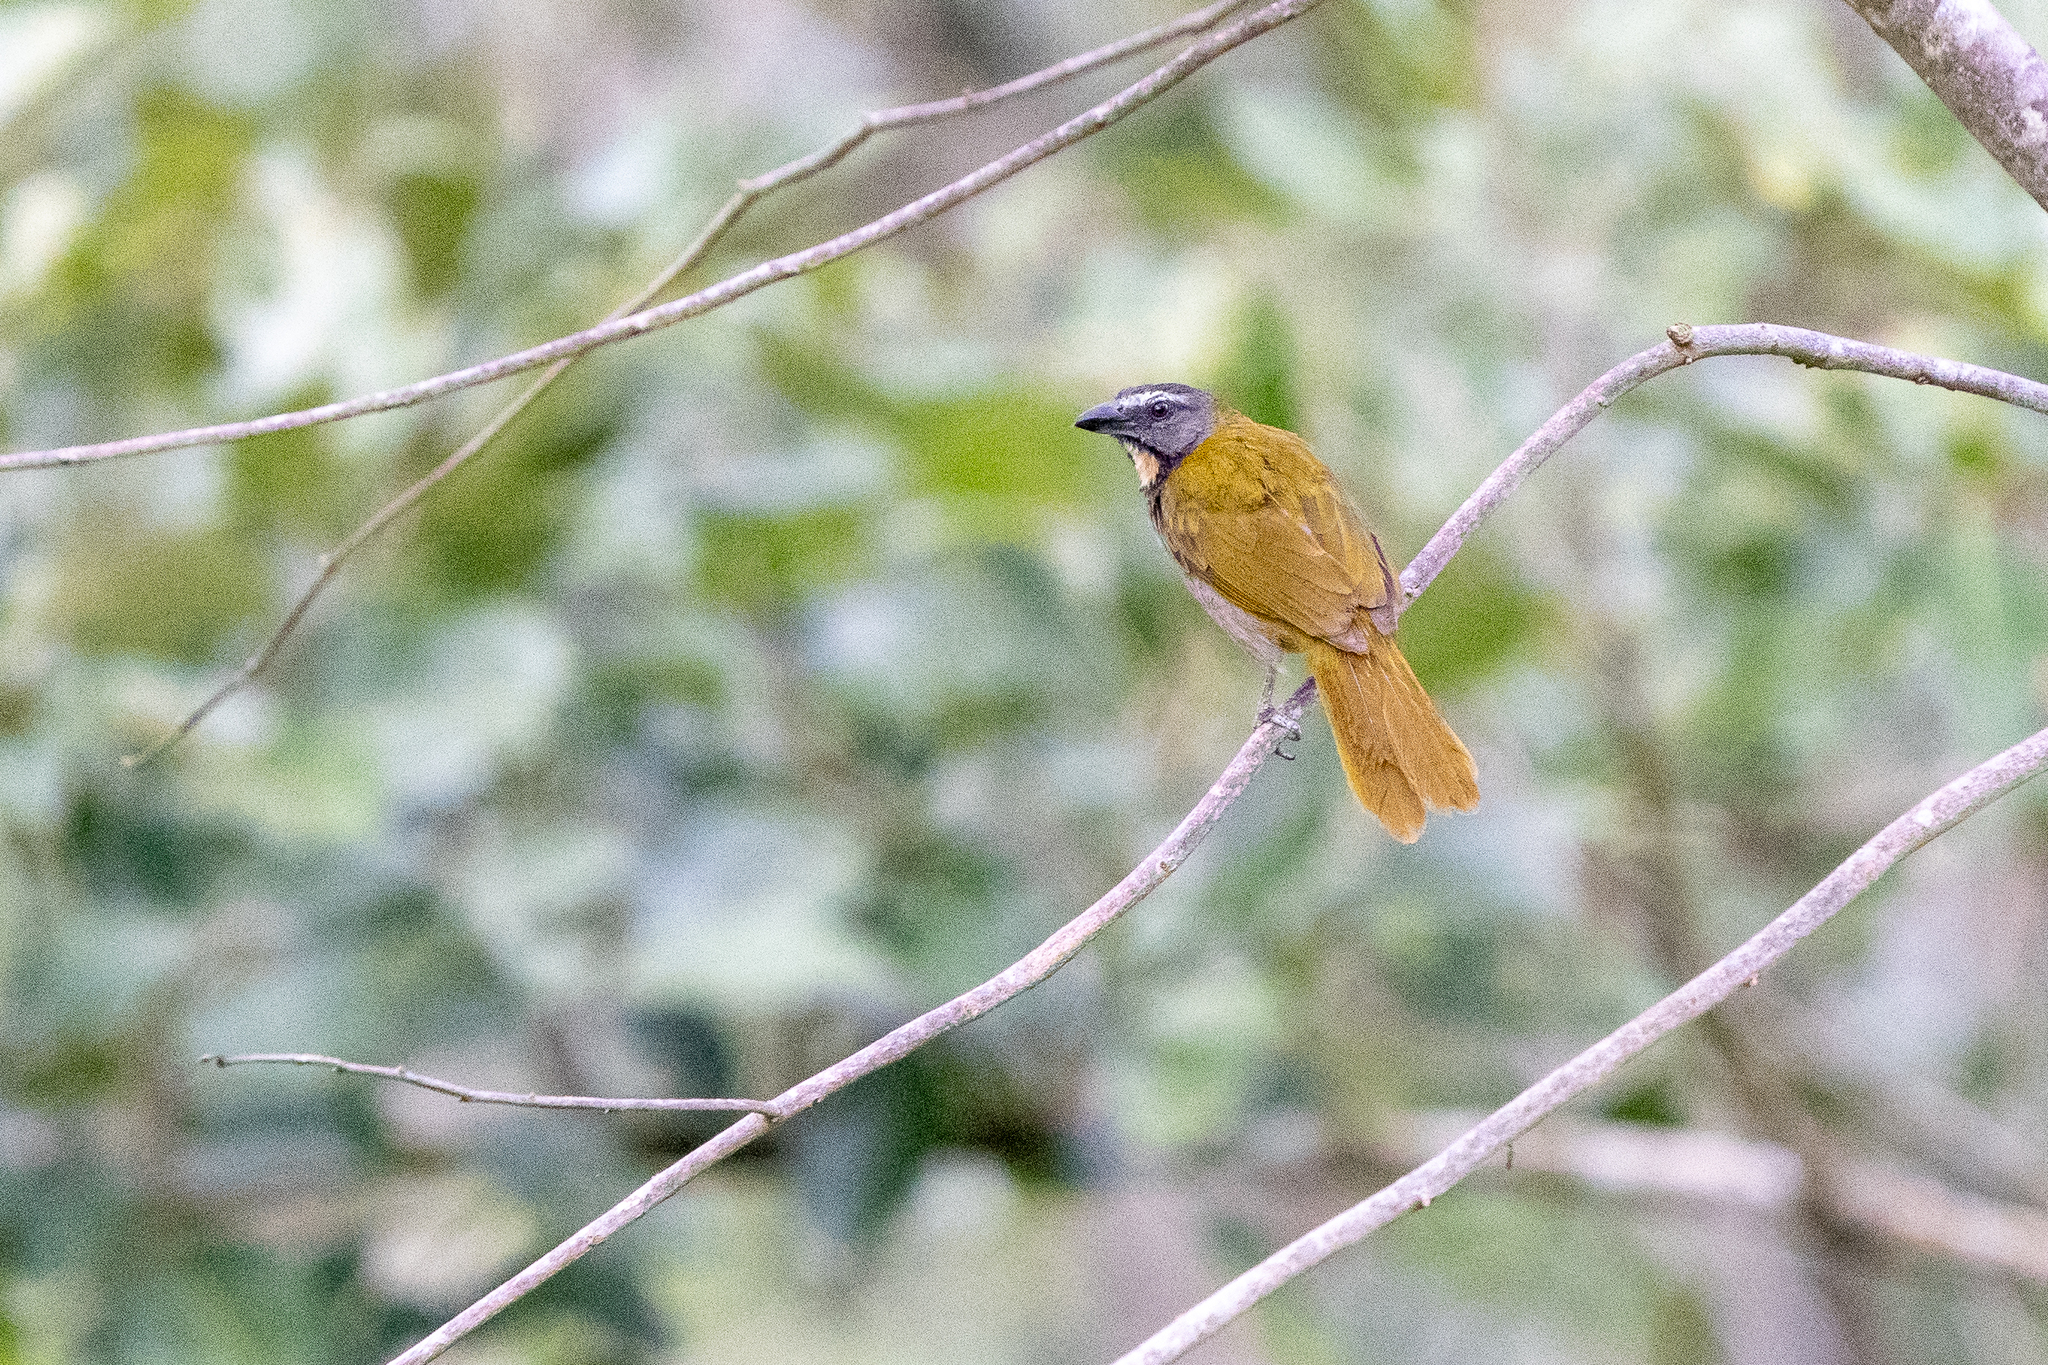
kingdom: Animalia
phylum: Chordata
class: Aves
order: Passeriformes
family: Thraupidae
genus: Saltator
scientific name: Saltator maximus
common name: Buff-throated saltator
